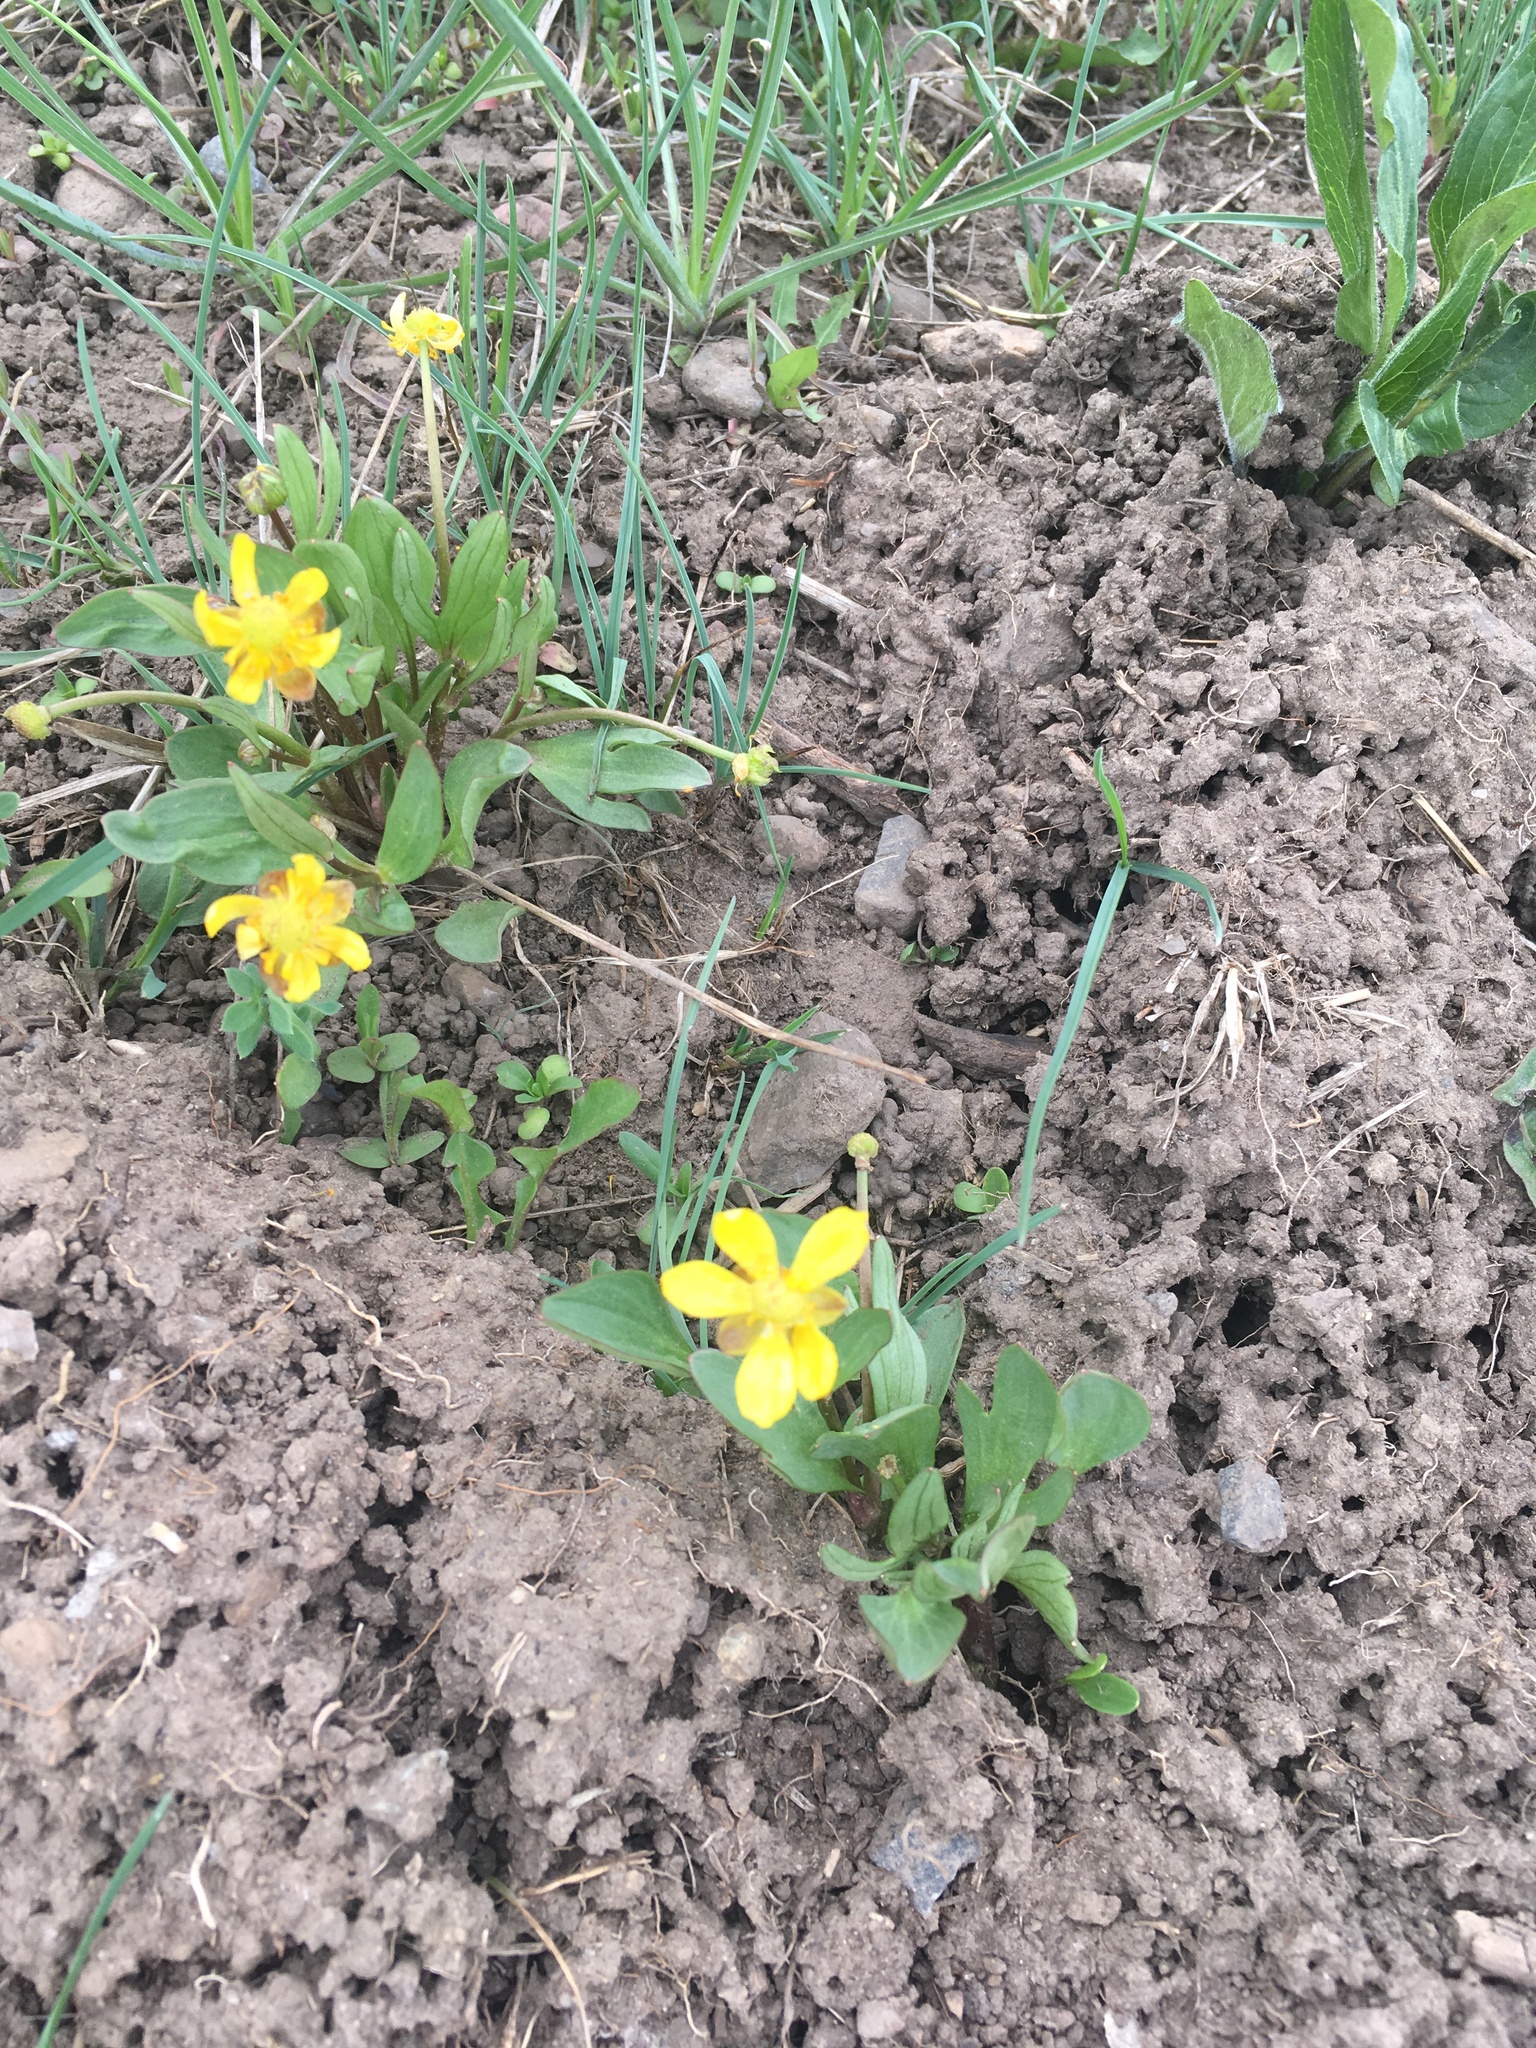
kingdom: Plantae
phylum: Tracheophyta
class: Magnoliopsida
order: Ranunculales
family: Ranunculaceae
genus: Ranunculus
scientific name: Ranunculus glaberrimus
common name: Sagebrush buttercup
